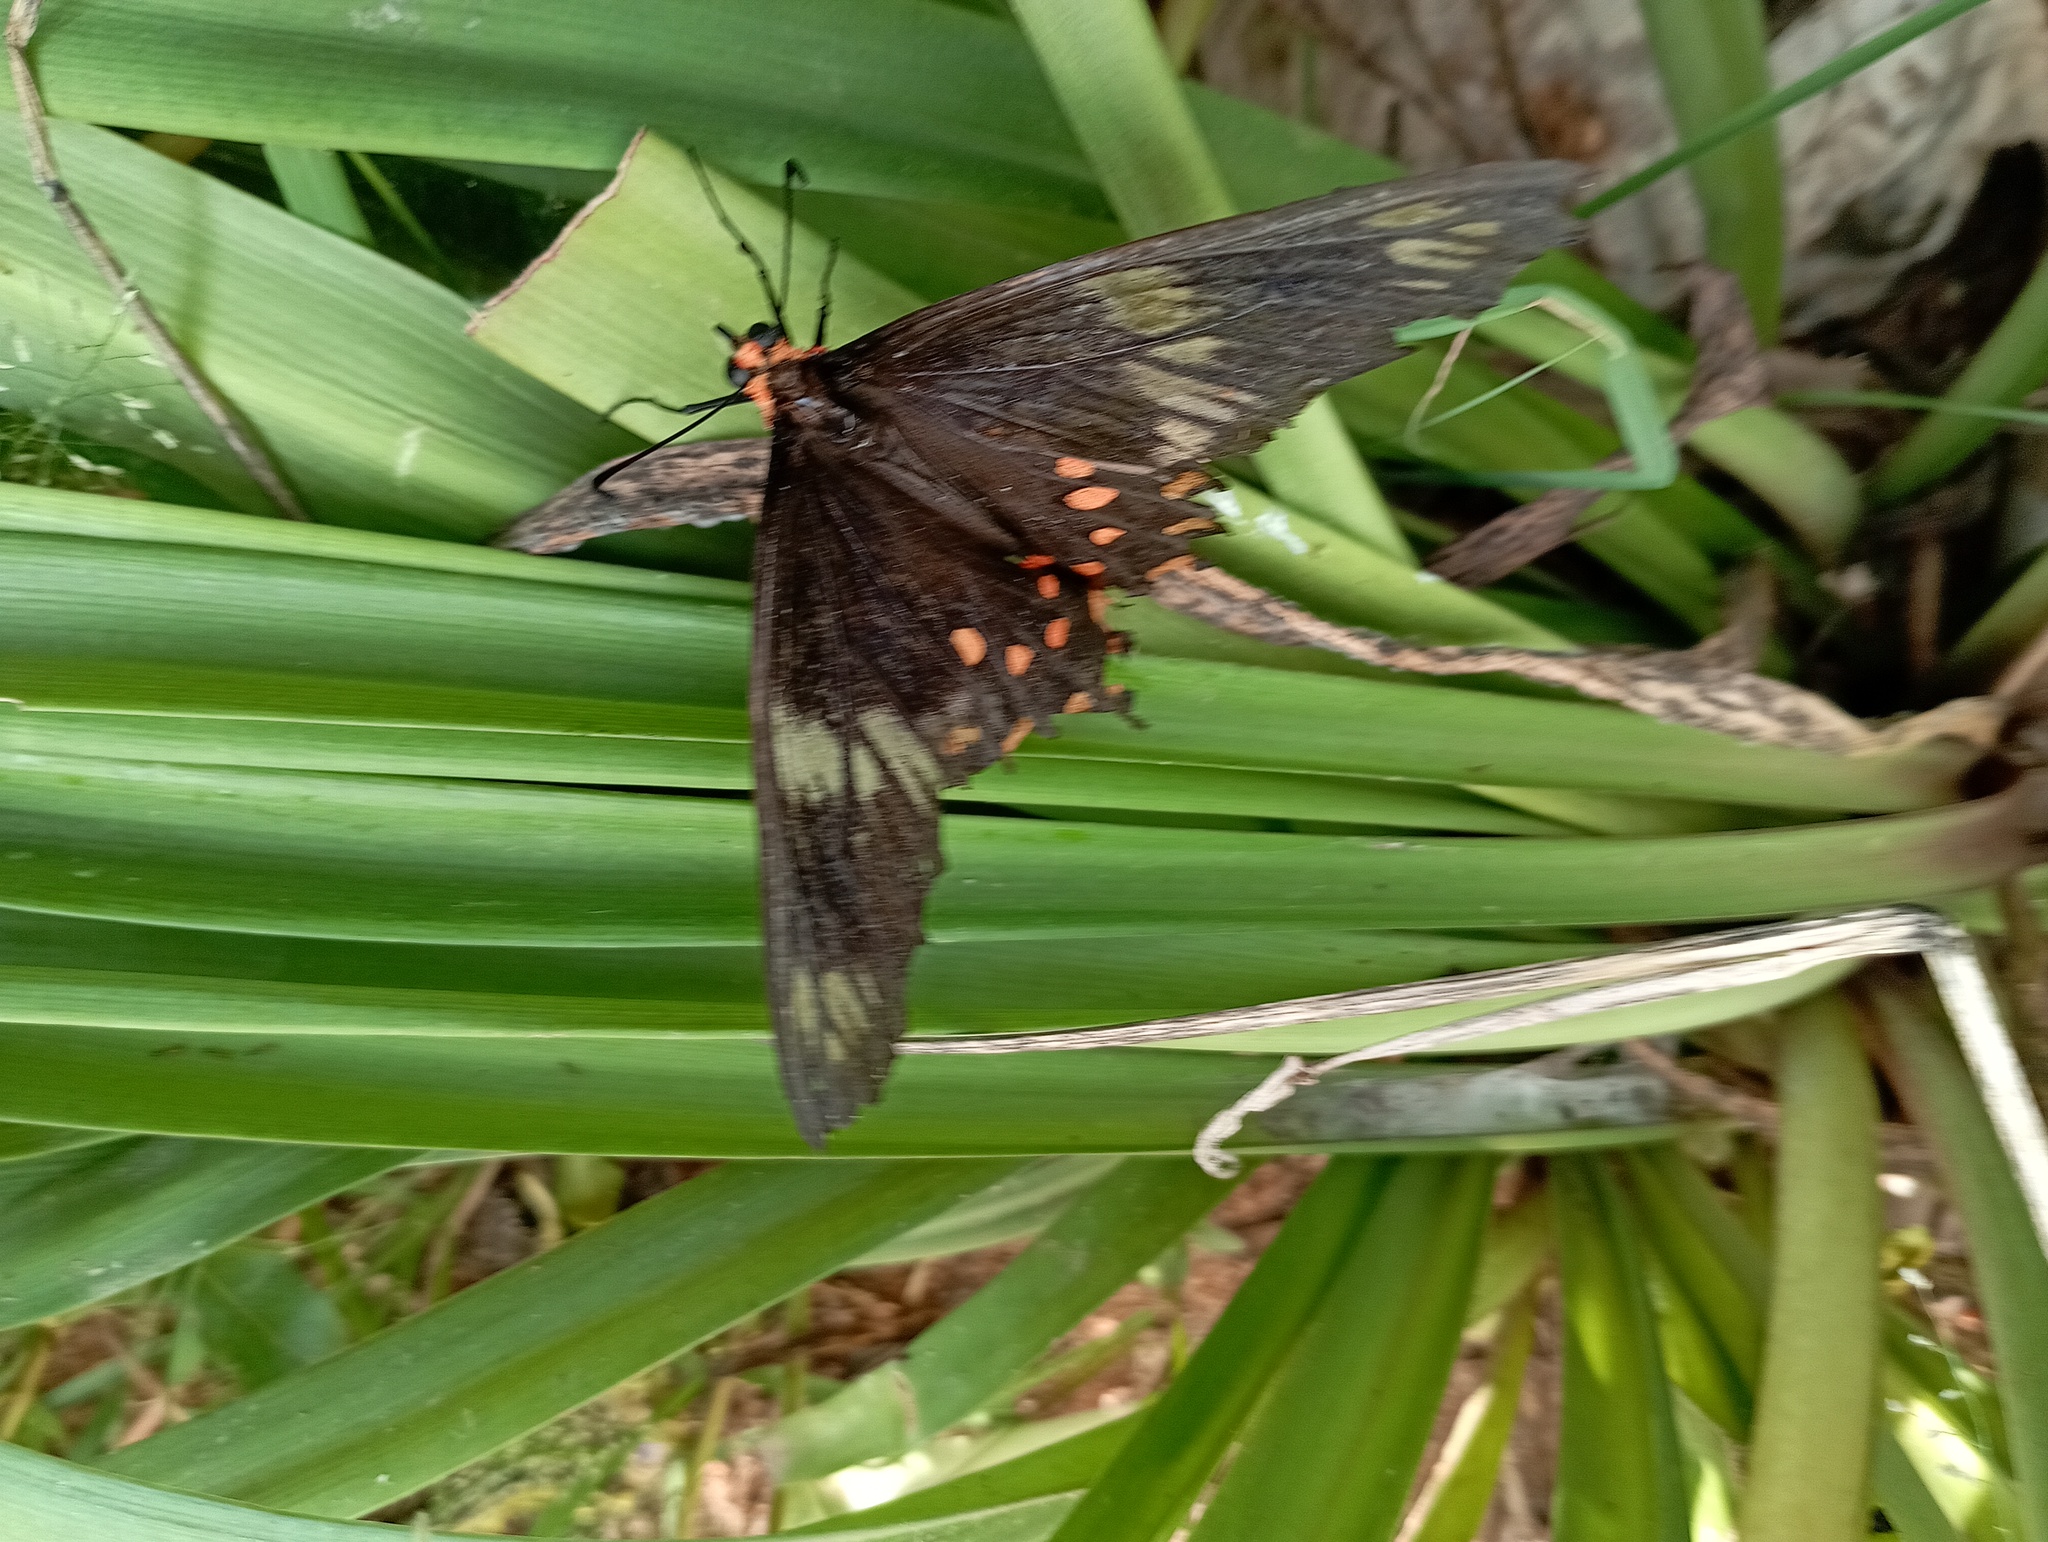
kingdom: Animalia
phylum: Arthropoda
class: Insecta
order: Lepidoptera
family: Papilionidae
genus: Pachliopta
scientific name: Pachliopta hector
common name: Crimson rose
